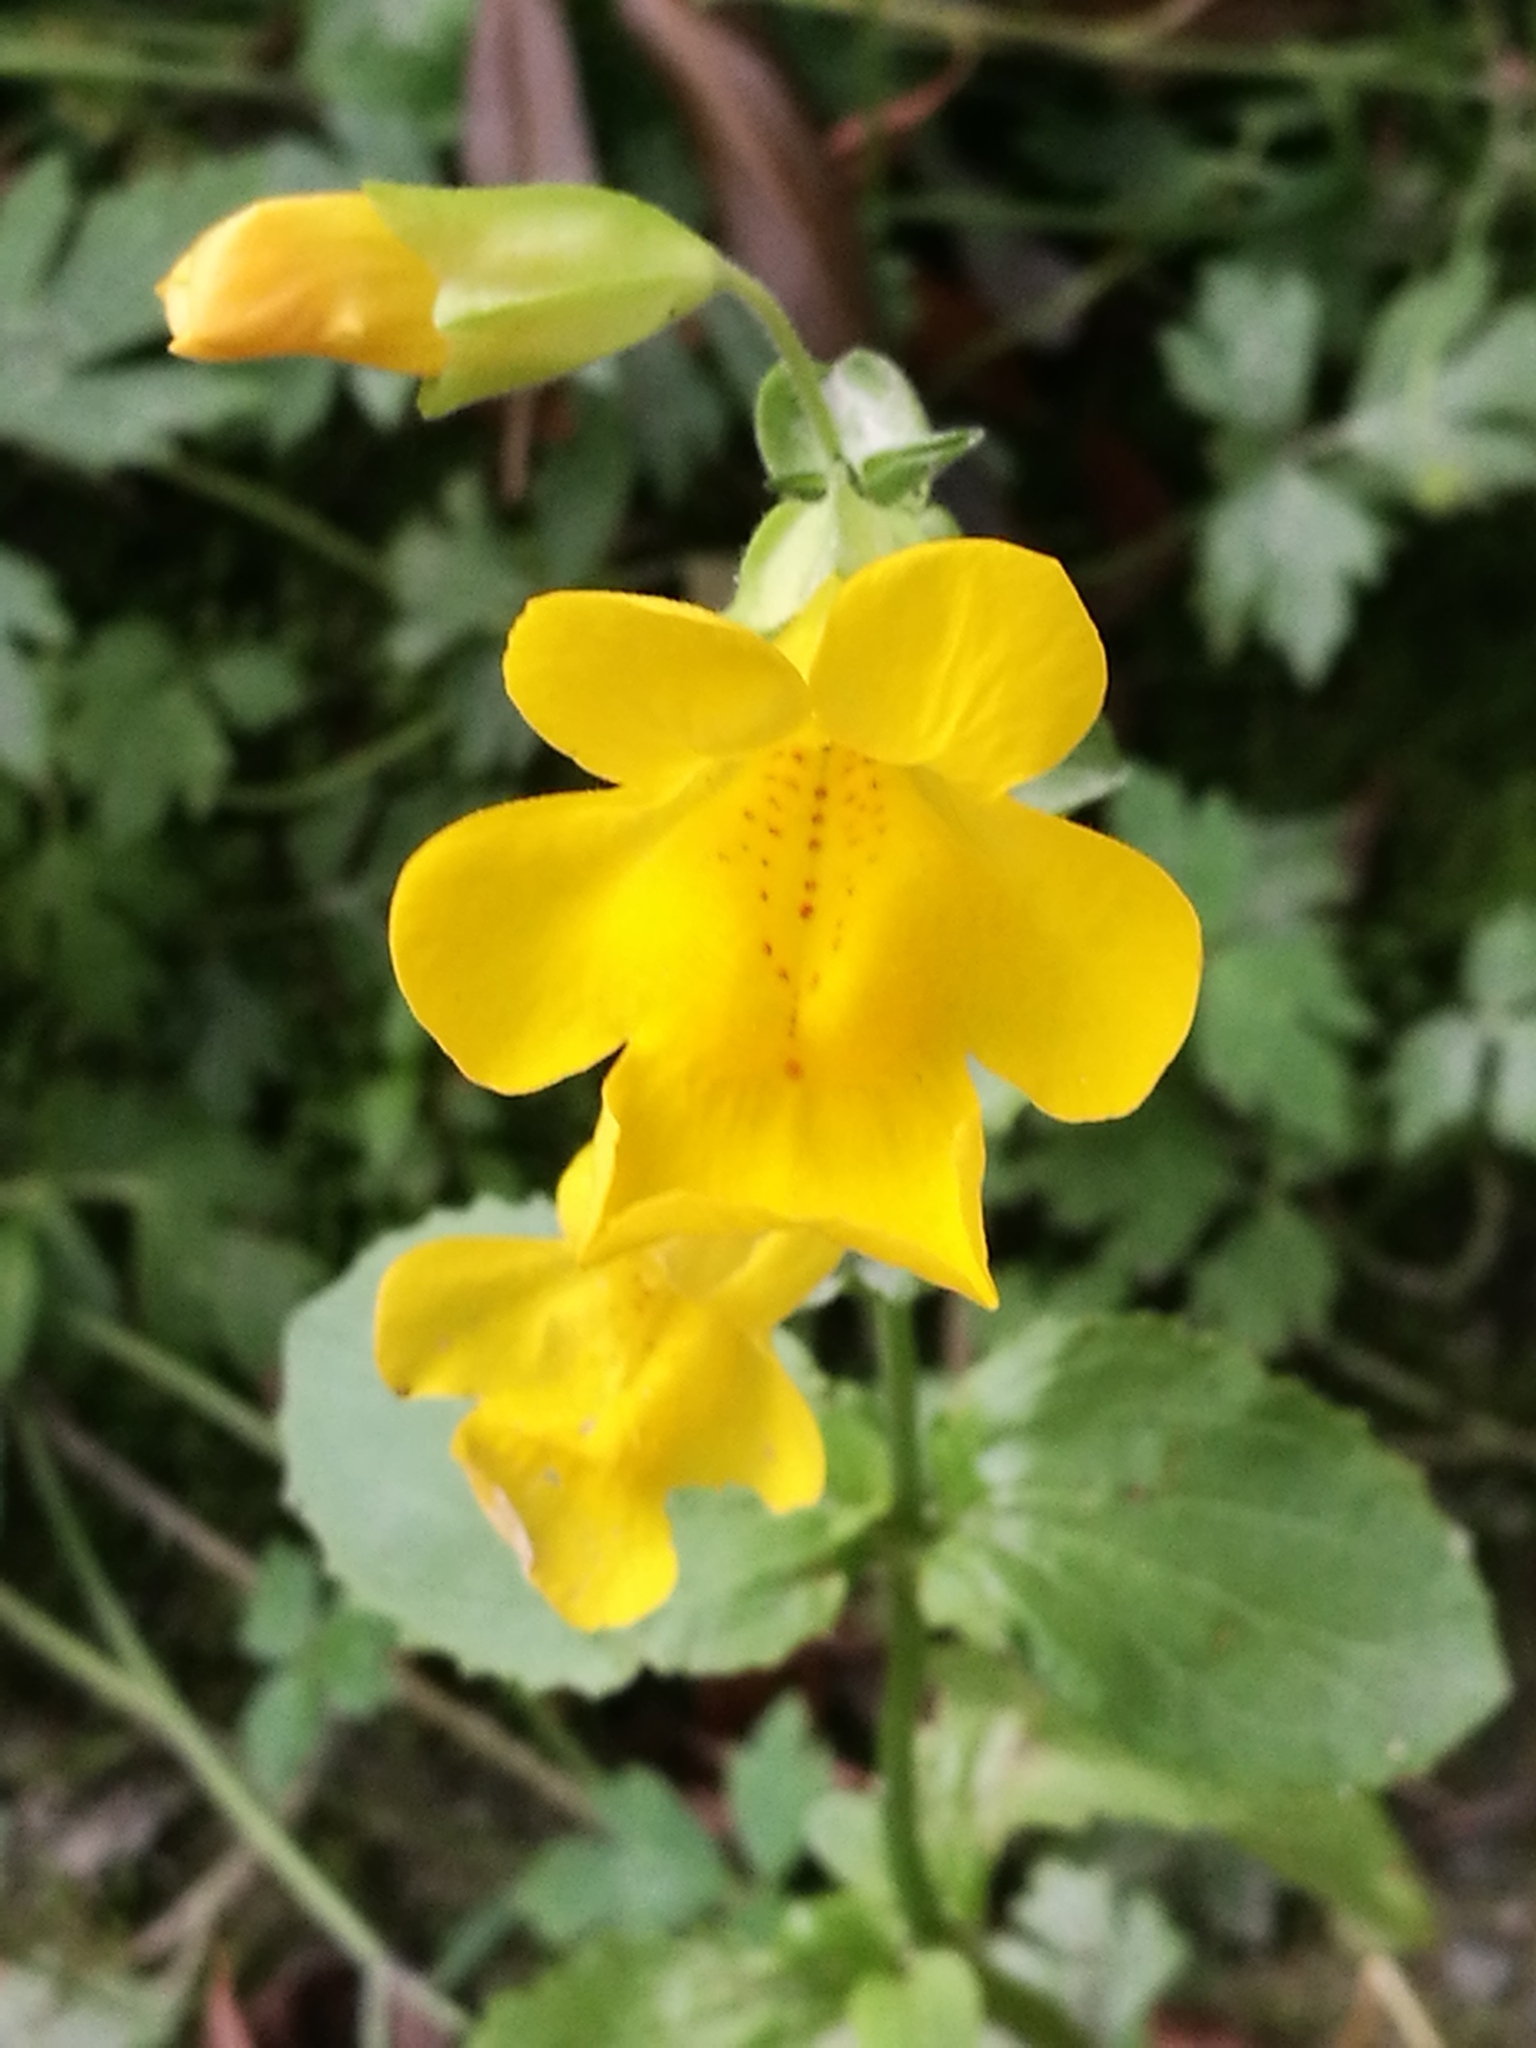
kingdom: Plantae
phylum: Tracheophyta
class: Magnoliopsida
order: Lamiales
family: Phrymaceae
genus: Erythranthe
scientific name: Erythranthe guttata
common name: Monkeyflower
